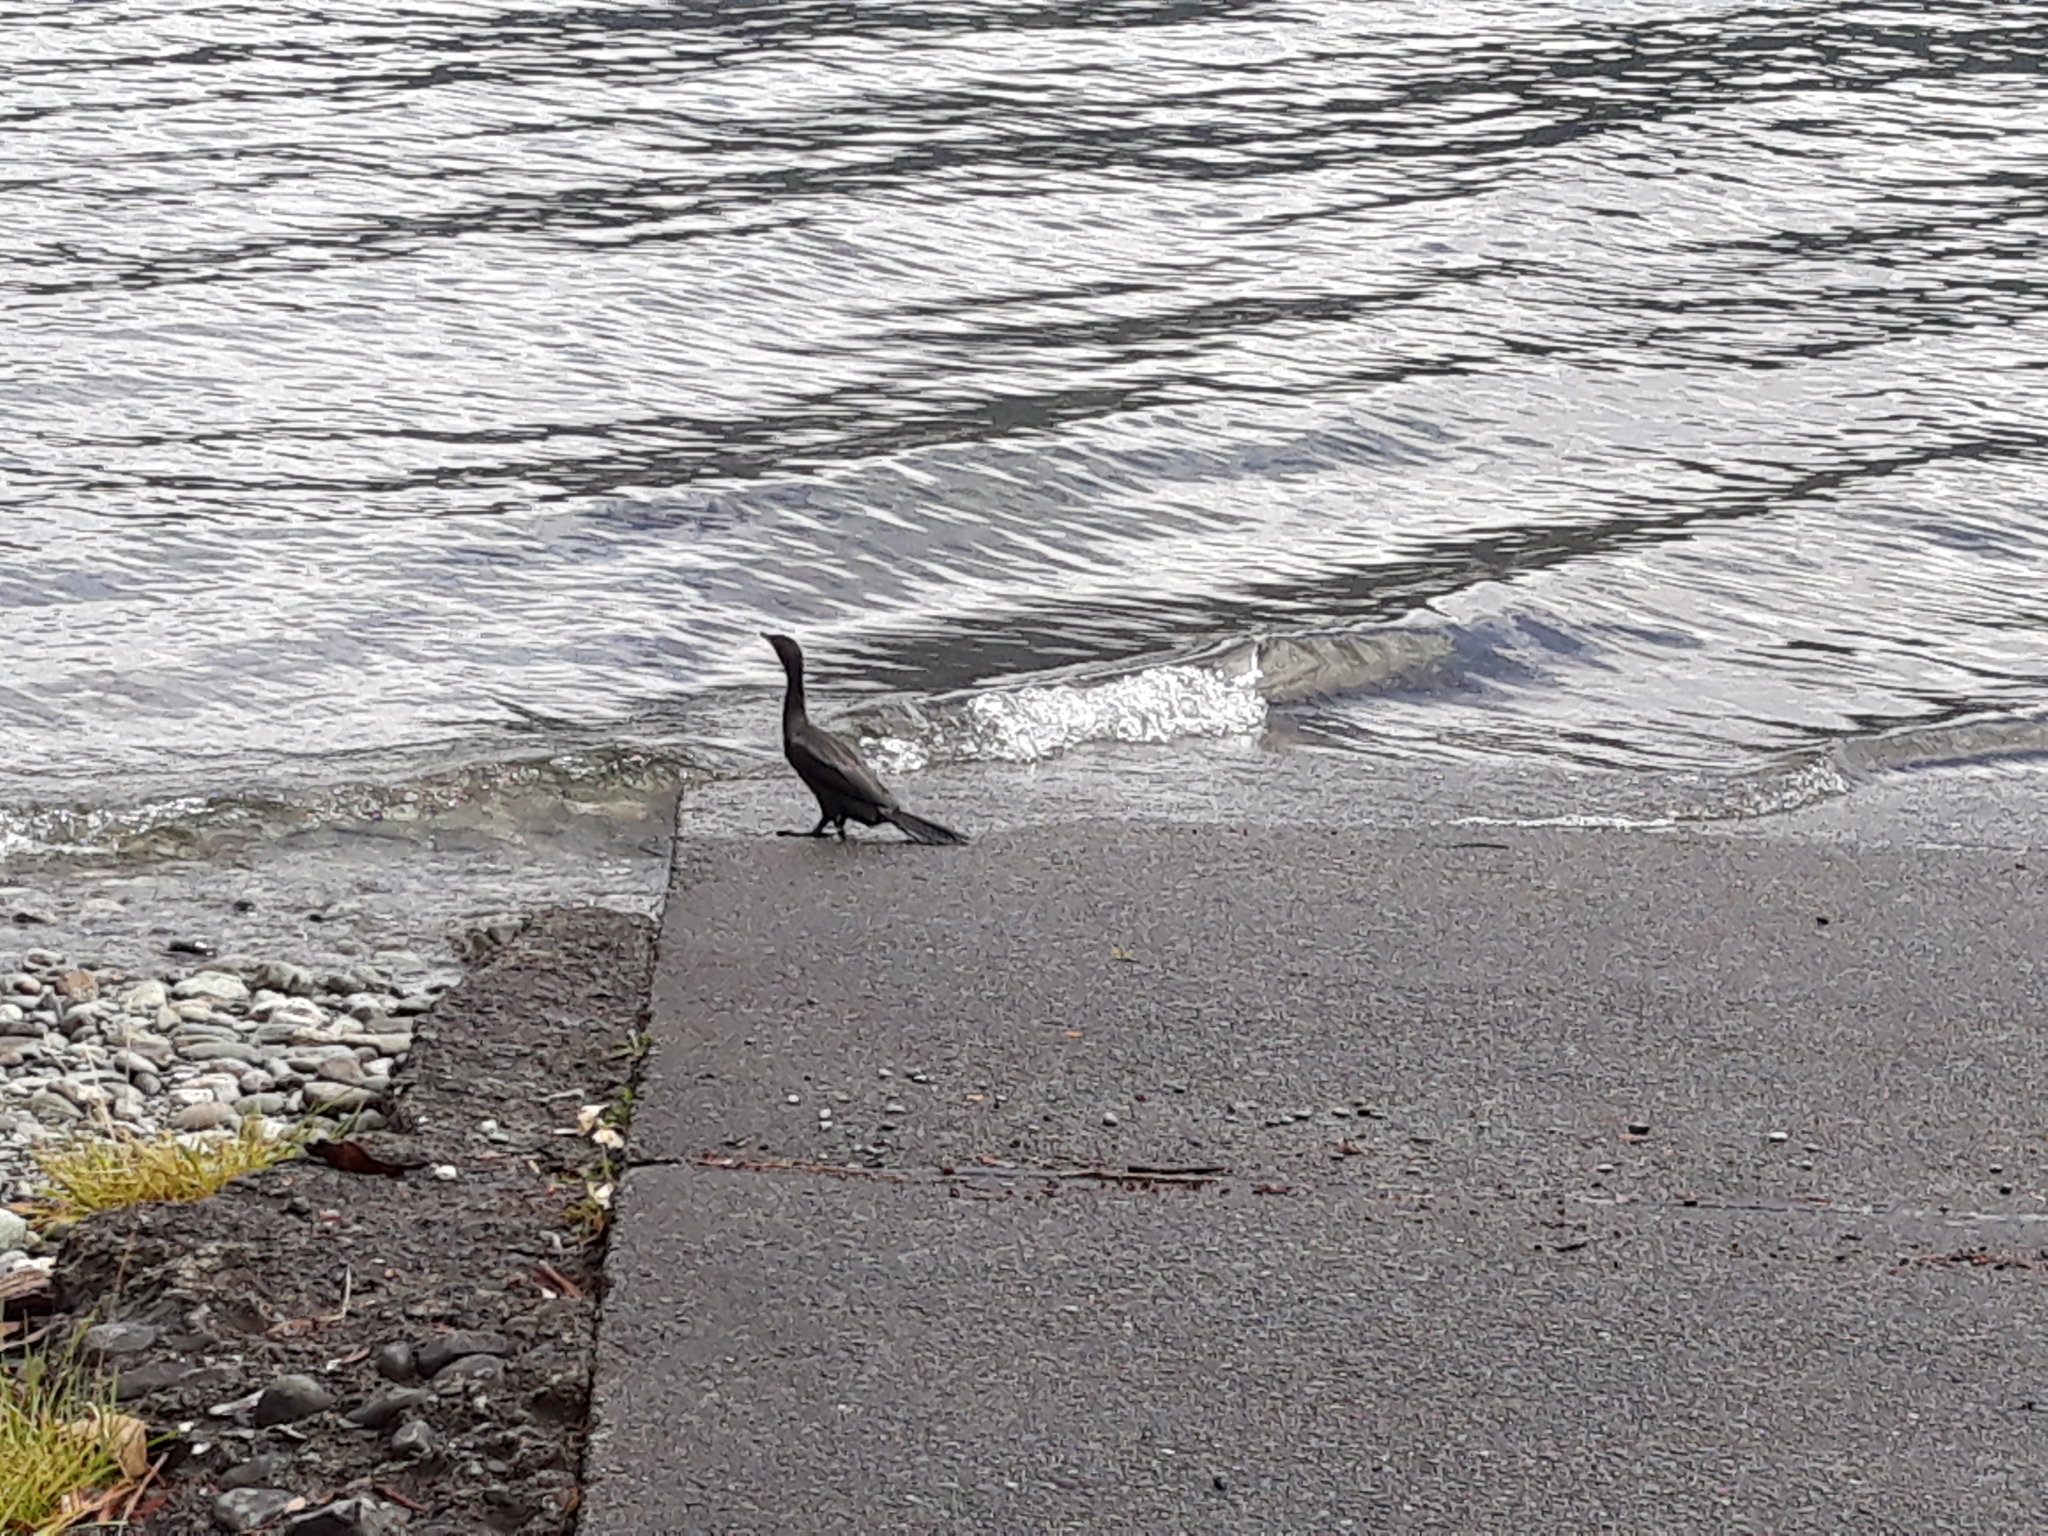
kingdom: Animalia
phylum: Chordata
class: Aves
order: Suliformes
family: Phalacrocoracidae
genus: Microcarbo
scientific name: Microcarbo melanoleucos
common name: Little pied cormorant
